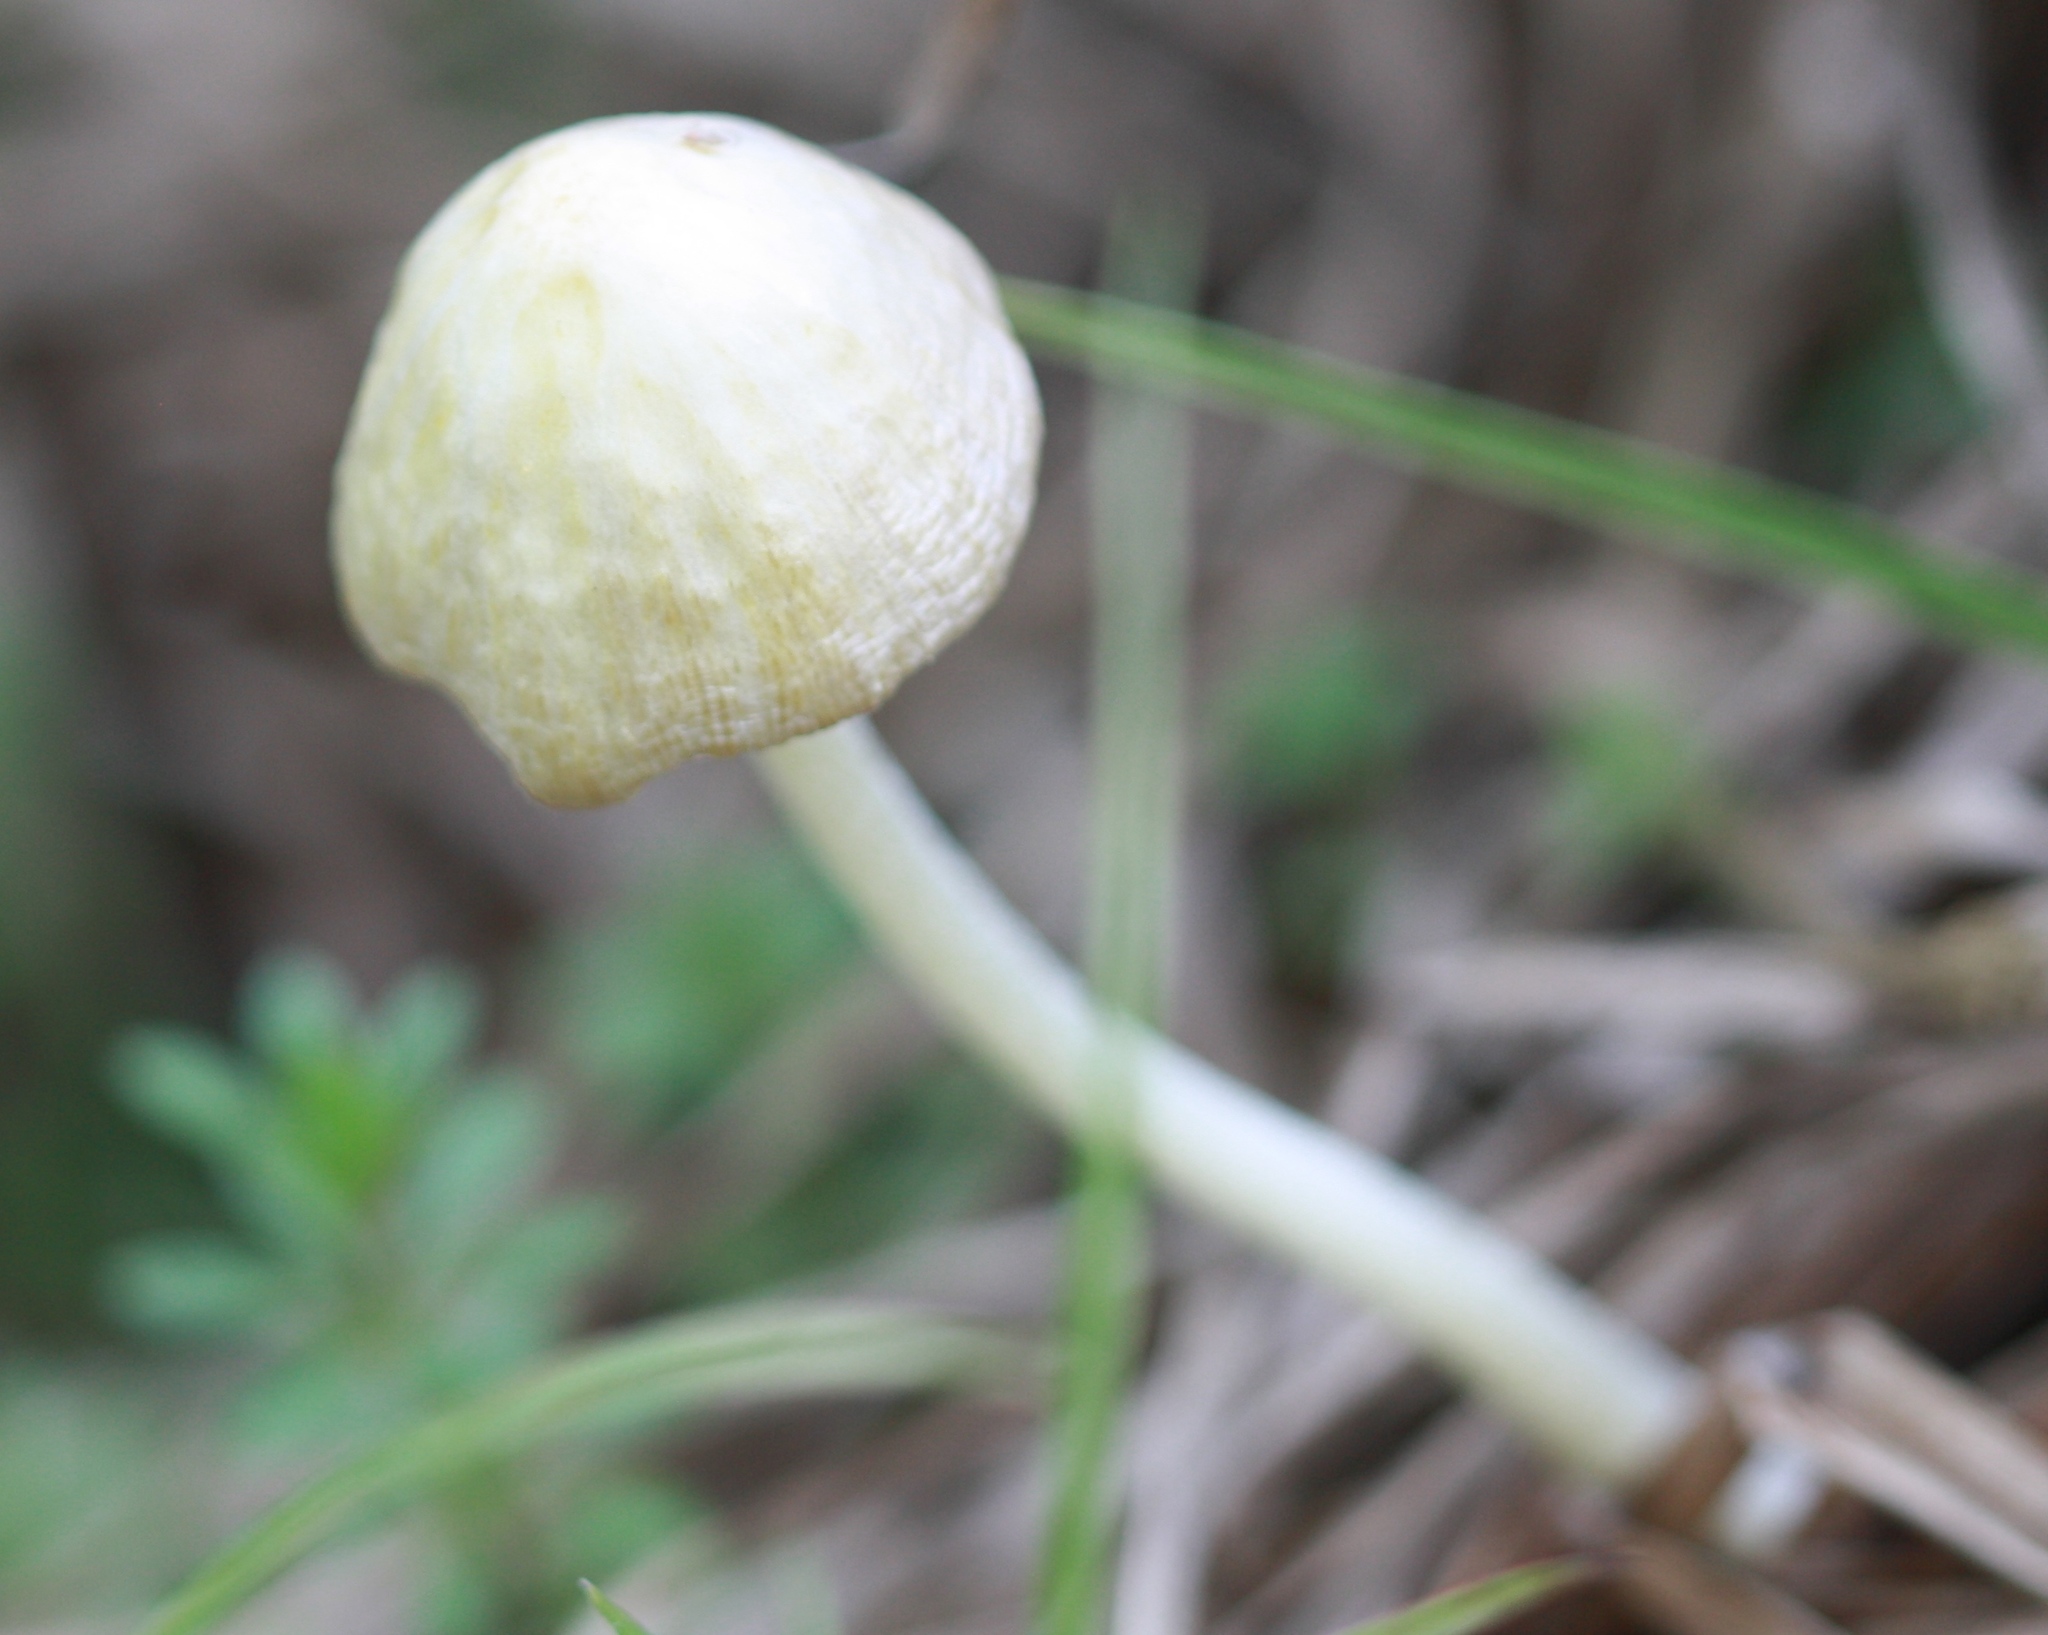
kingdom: Fungi
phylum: Basidiomycota
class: Agaricomycetes
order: Agaricales
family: Bolbitiaceae
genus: Bolbitius
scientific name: Bolbitius titubans
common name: Yellow fieldcap
